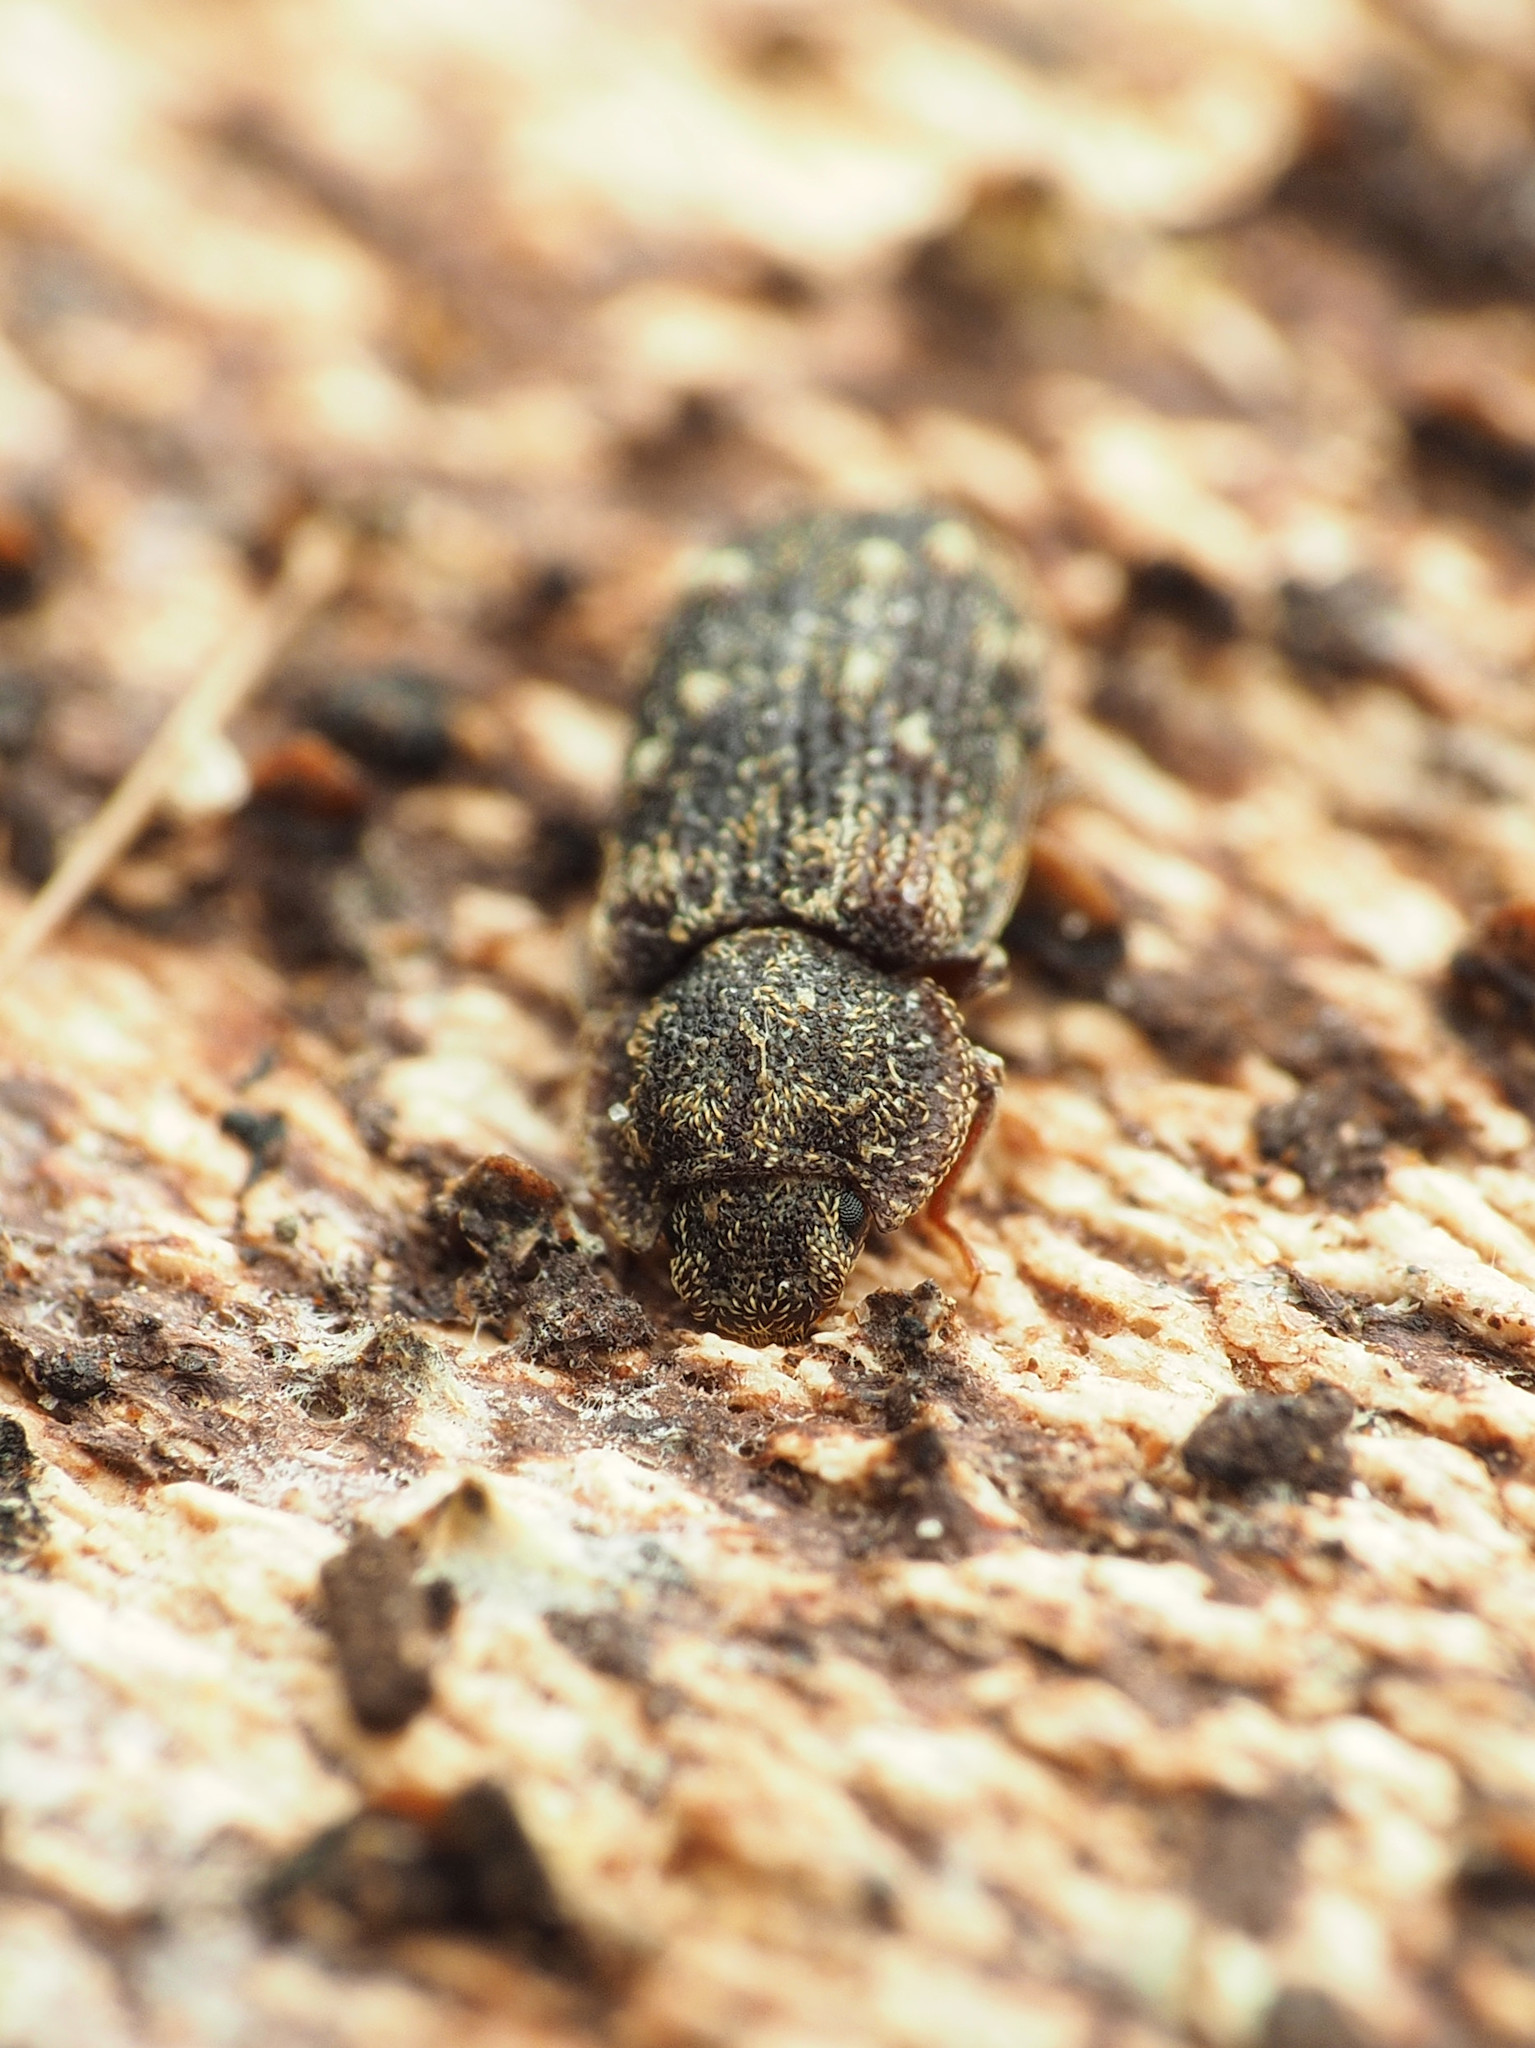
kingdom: Animalia
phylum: Arthropoda
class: Insecta
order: Coleoptera
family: Zopheridae
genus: Namunaria
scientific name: Namunaria guttulata
